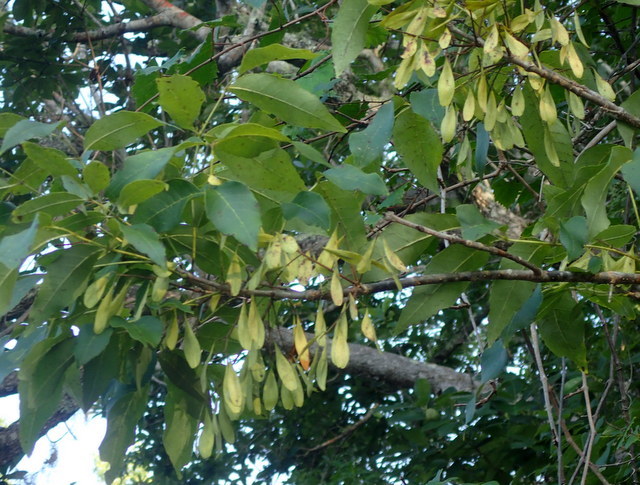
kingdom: Plantae
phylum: Tracheophyta
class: Magnoliopsida
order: Lamiales
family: Oleaceae
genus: Fraxinus
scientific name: Fraxinus caroliniana
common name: Carolina ash
